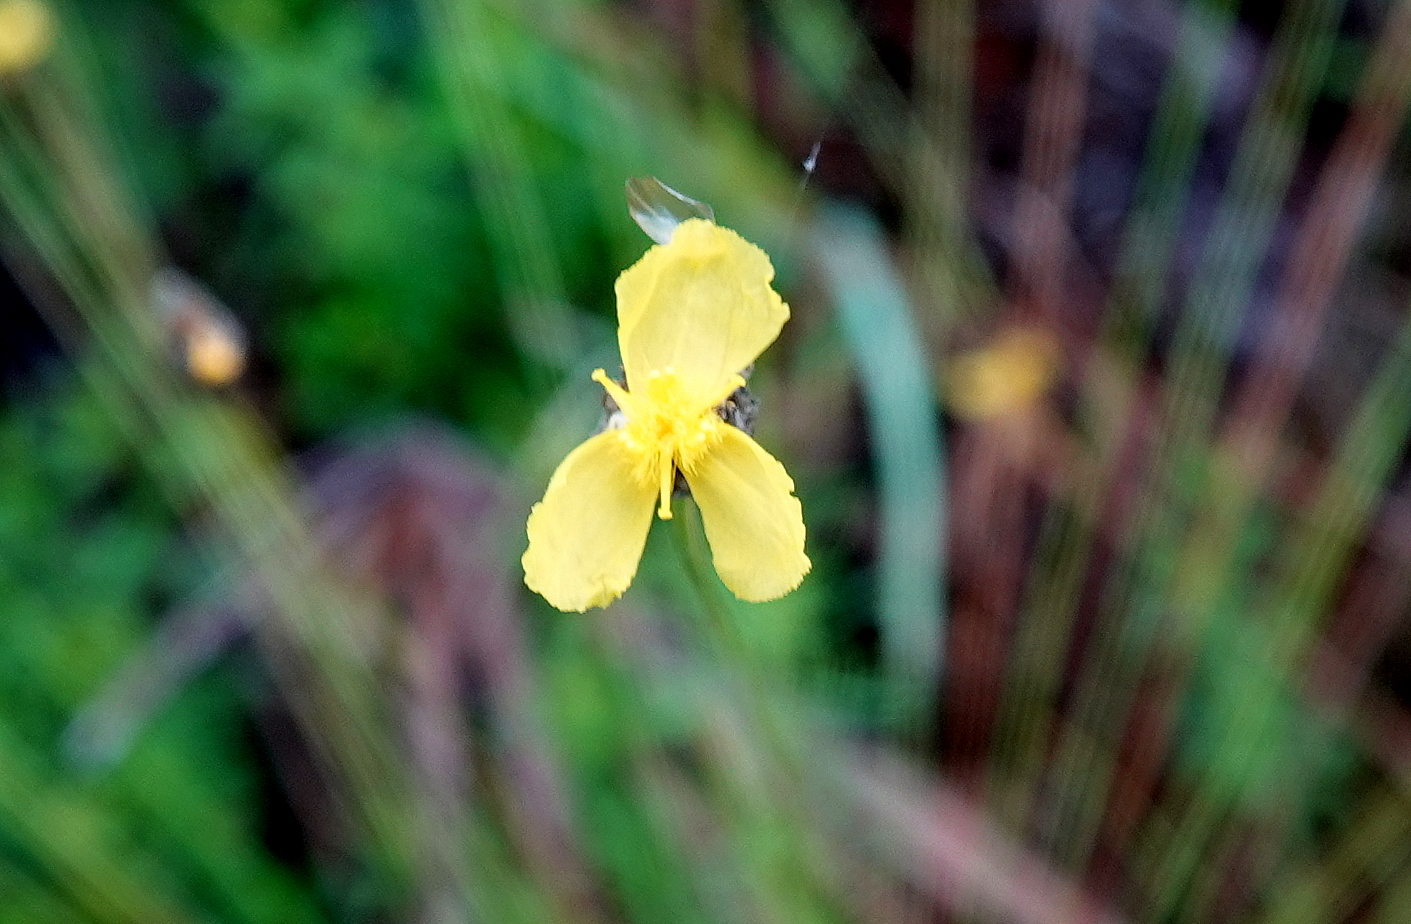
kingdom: Plantae
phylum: Tracheophyta
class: Liliopsida
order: Poales
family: Xyridaceae
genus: Xyris
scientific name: Xyris elliottii
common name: Elliot's yelloweyed grass
